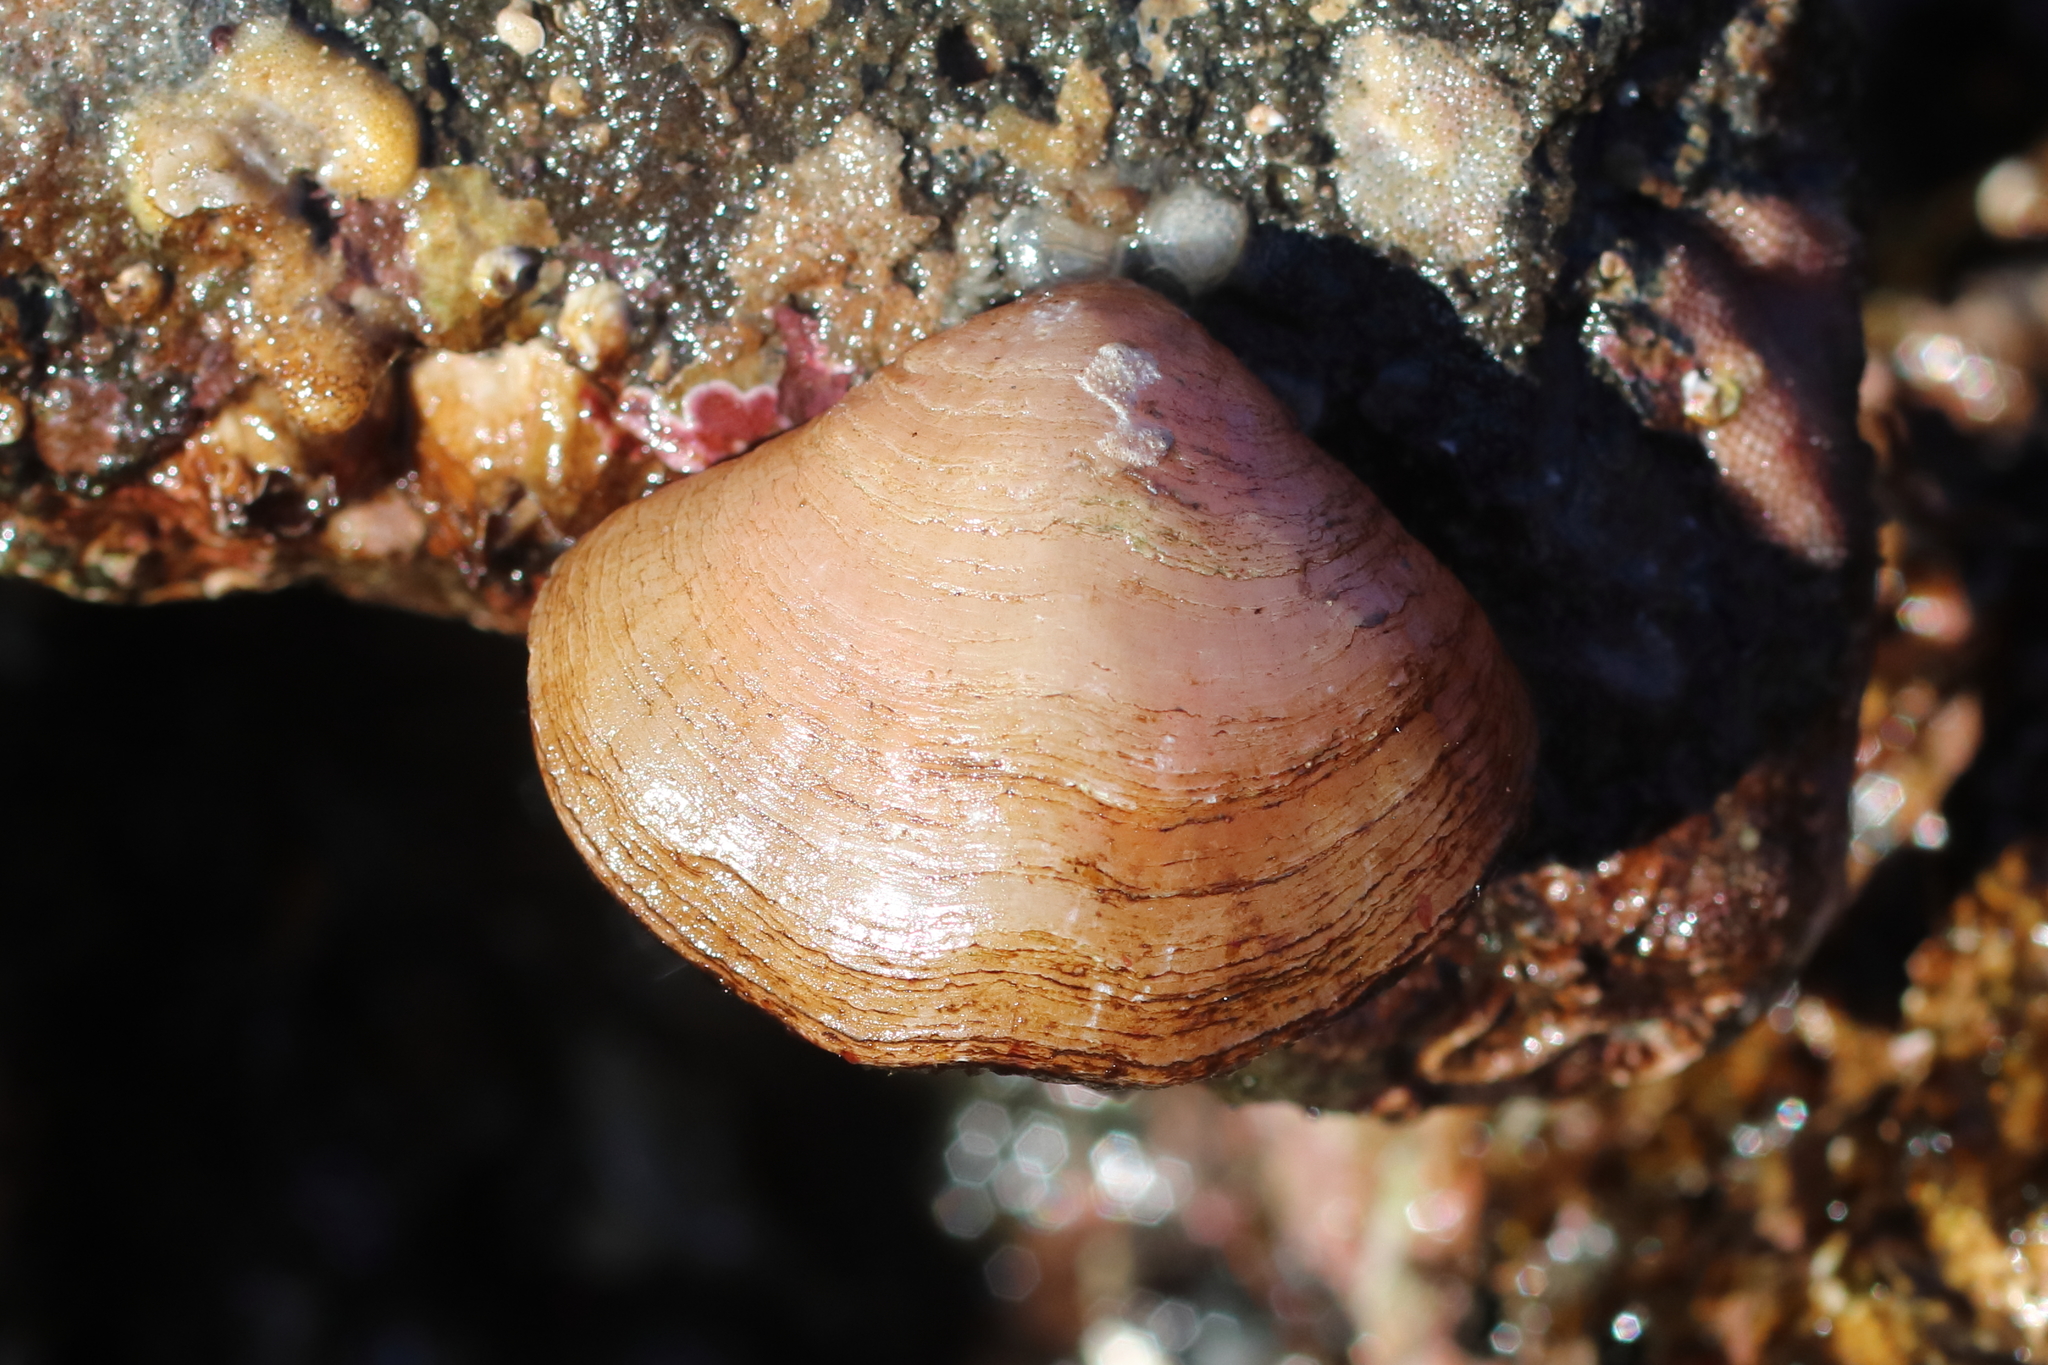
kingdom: Animalia
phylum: Brachiopoda
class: Rhynchonellata
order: Terebratulida
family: Terebrataliidae
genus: Terebratalia
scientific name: Terebratalia transversa
